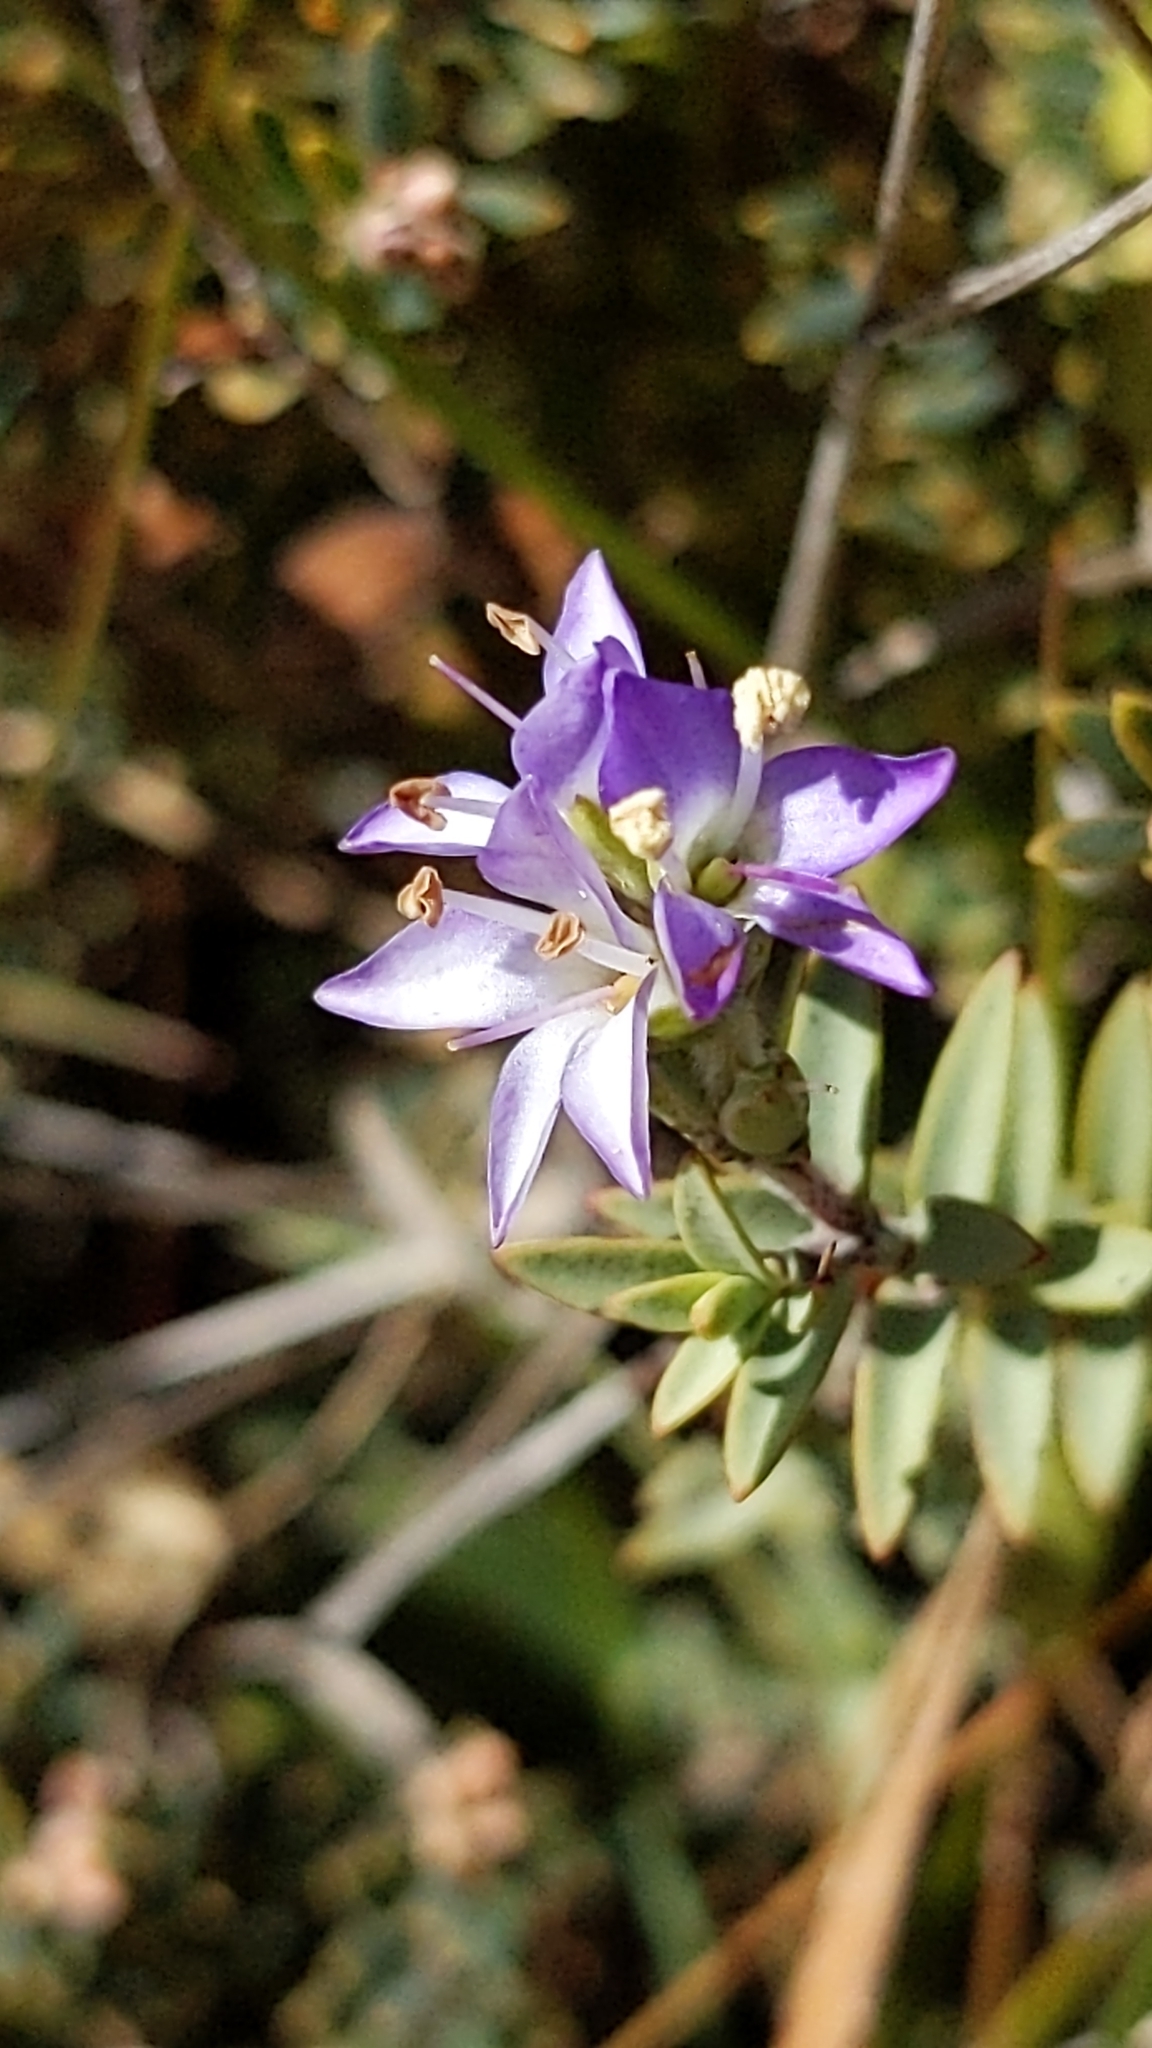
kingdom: Plantae
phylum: Tracheophyta
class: Magnoliopsida
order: Lamiales
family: Plantaginaceae
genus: Veronica
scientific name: Veronica pimeleoides
